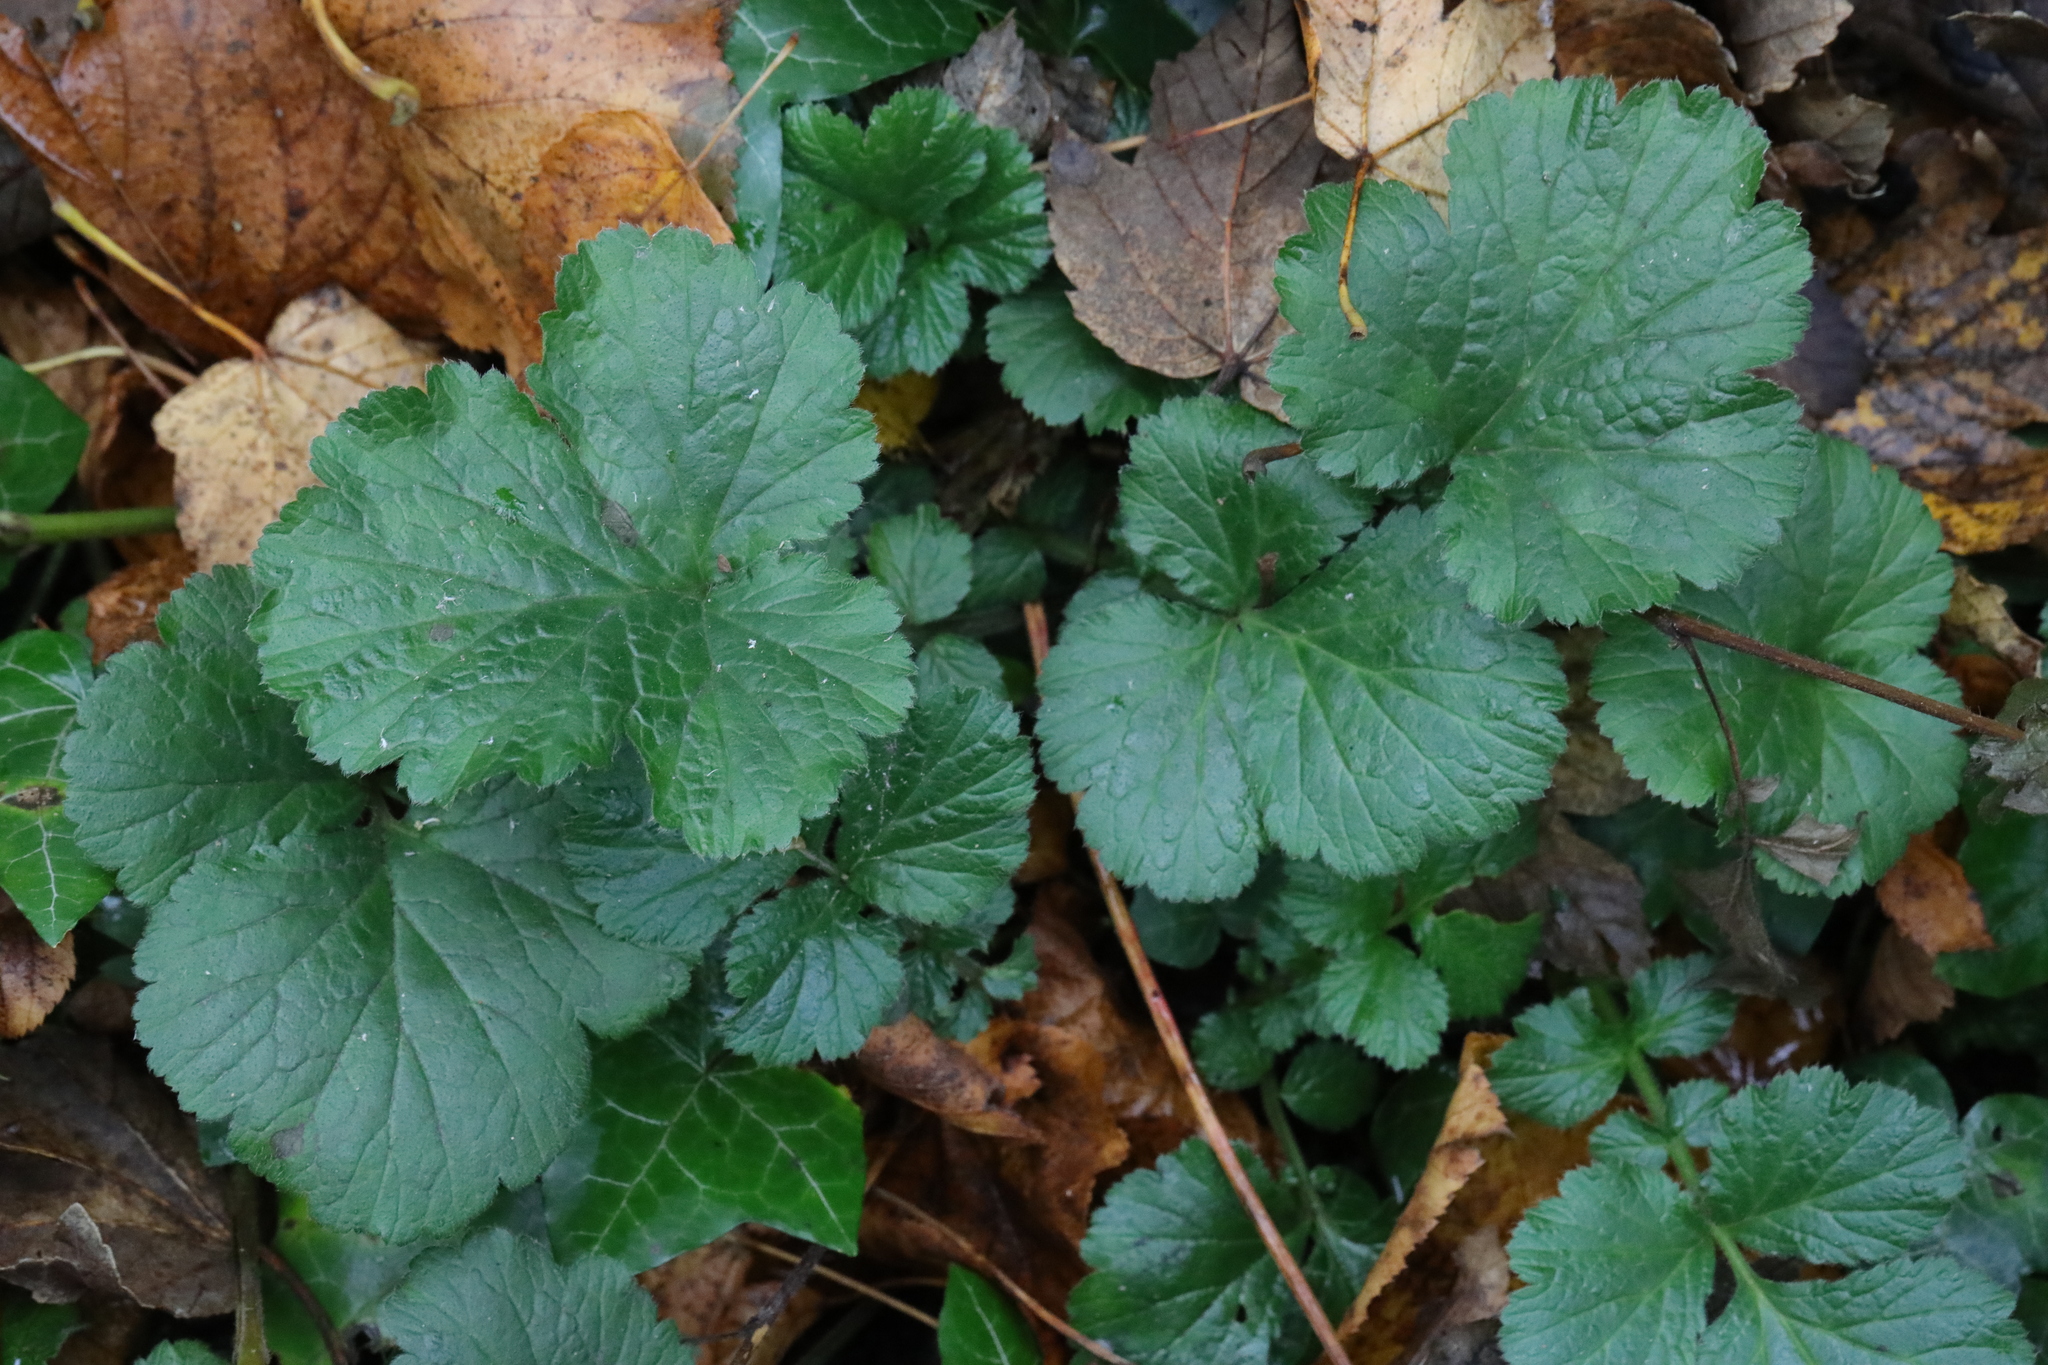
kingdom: Plantae
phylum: Tracheophyta
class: Magnoliopsida
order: Rosales
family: Rosaceae
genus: Geum
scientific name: Geum urbanum
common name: Wood avens
